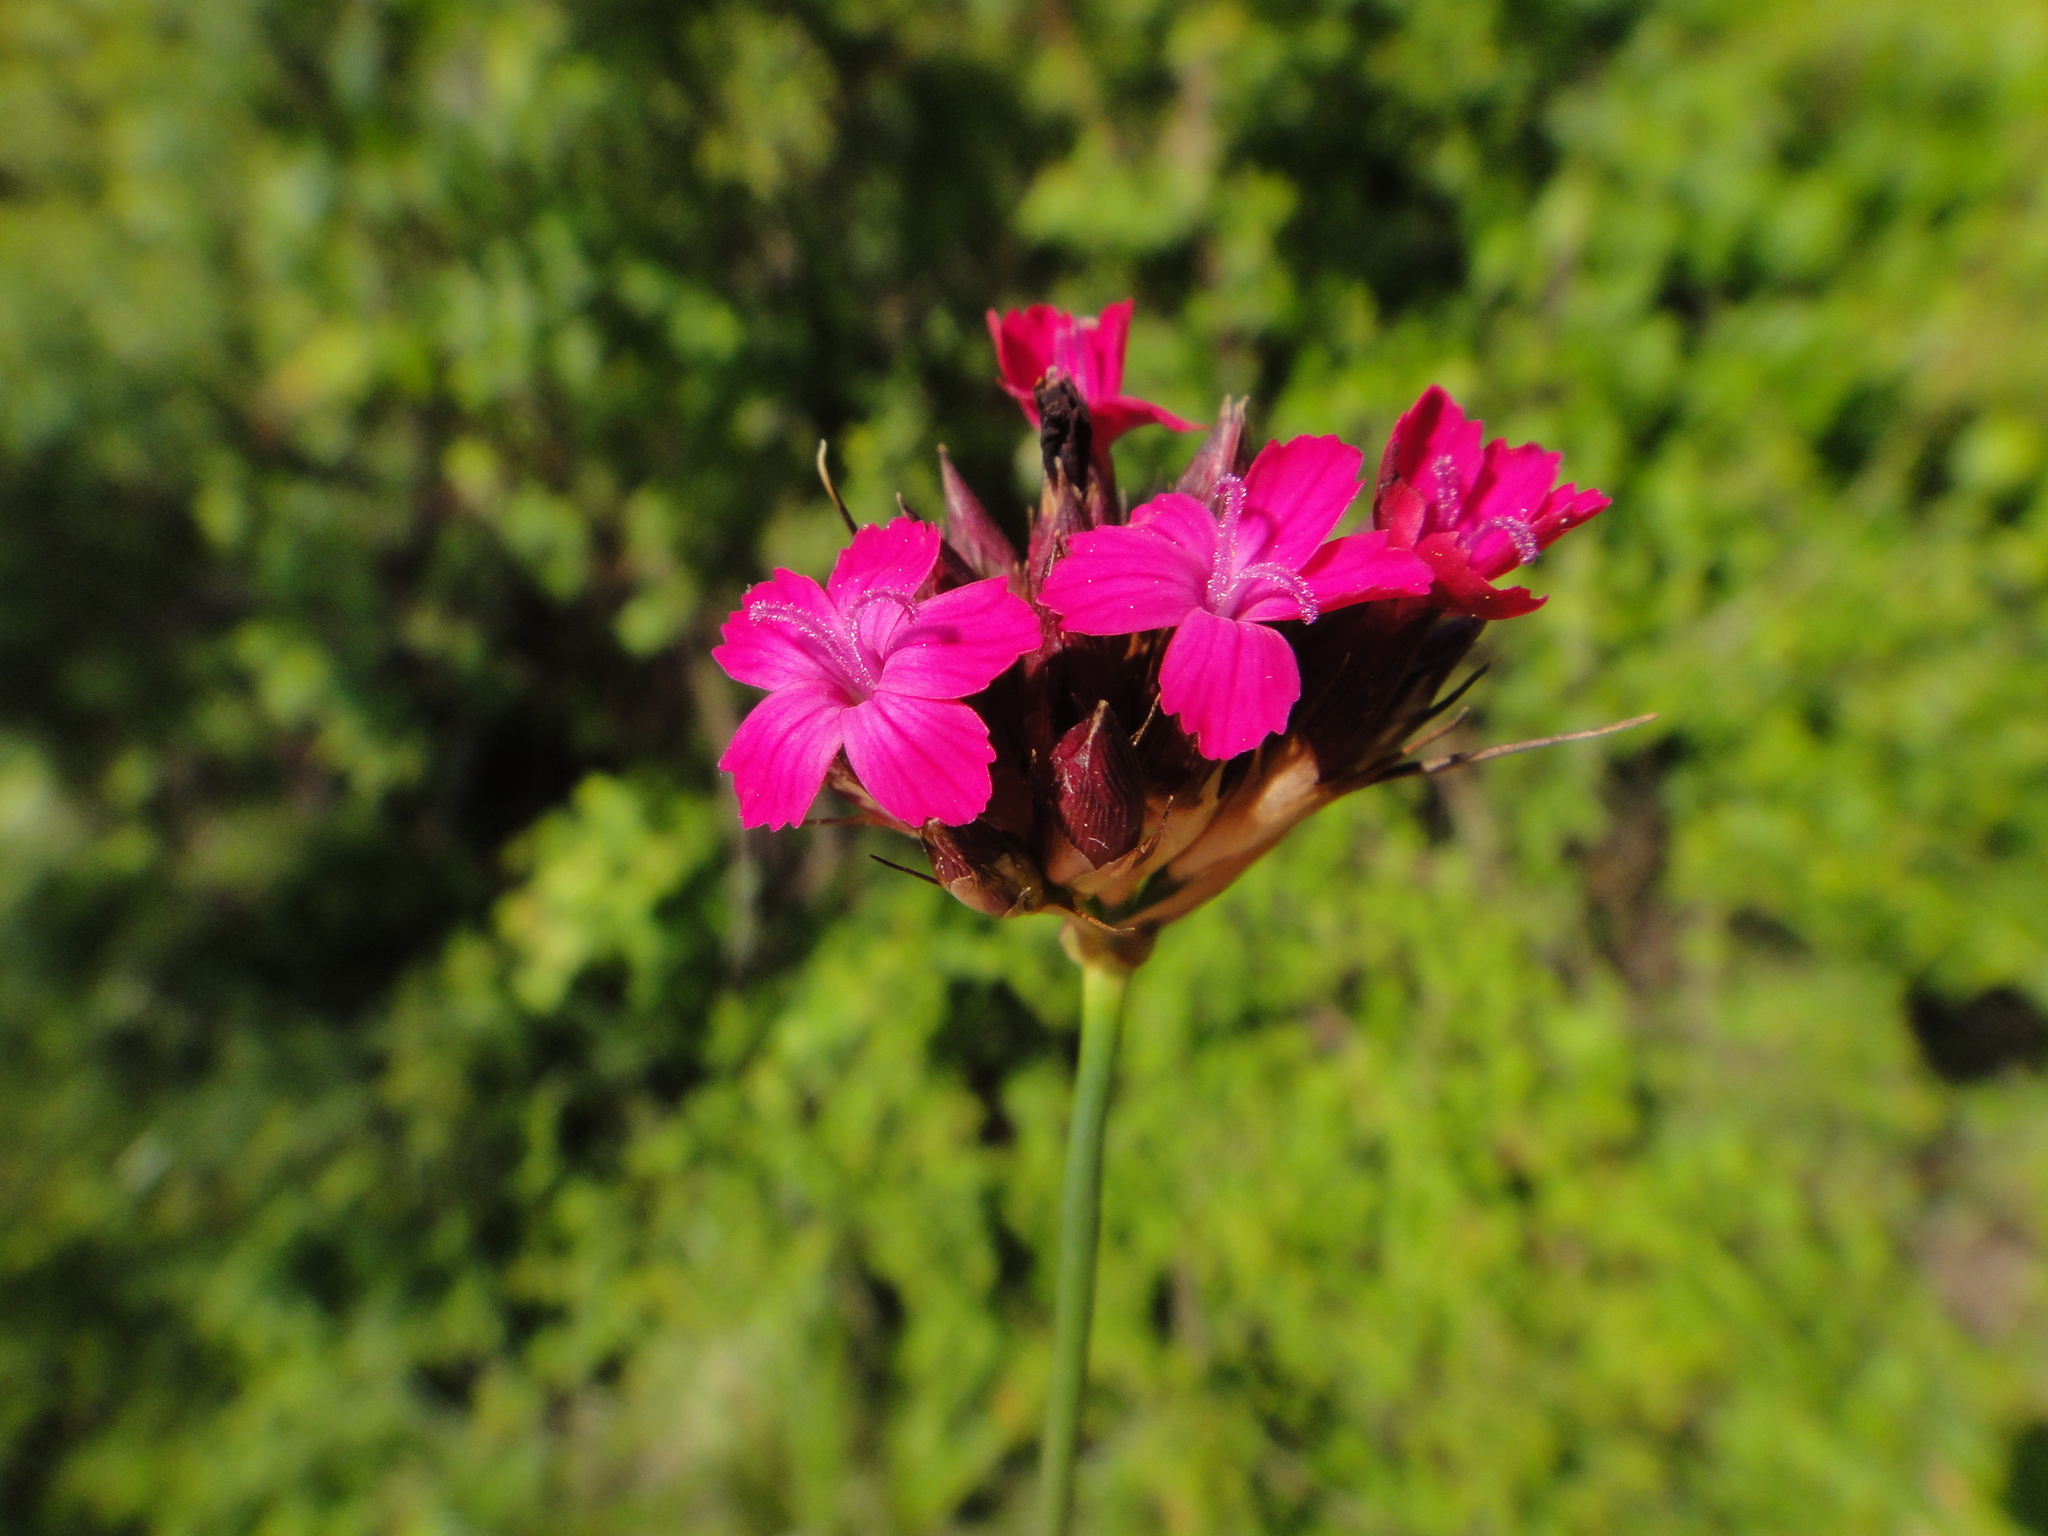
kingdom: Plantae
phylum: Tracheophyta
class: Magnoliopsida
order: Caryophyllales
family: Caryophyllaceae
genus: Dianthus
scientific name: Dianthus carthusianorum
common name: Carthusian pink
